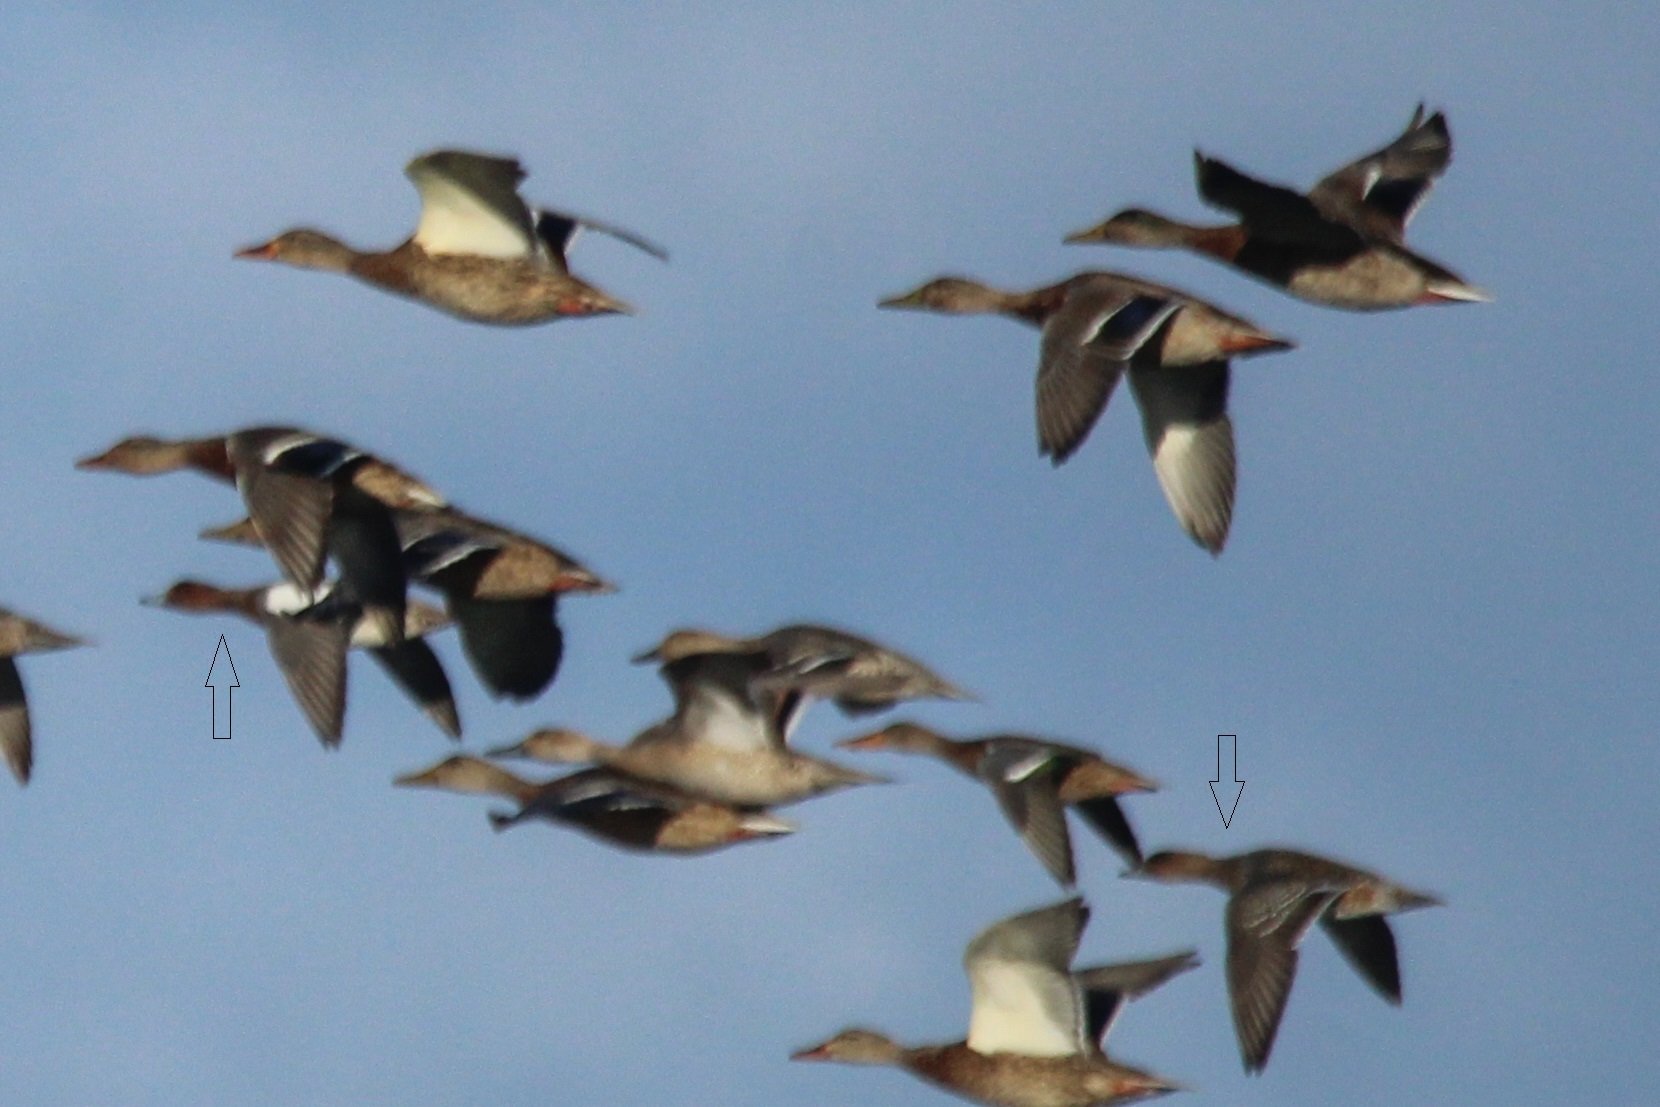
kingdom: Animalia
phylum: Chordata
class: Aves
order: Anseriformes
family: Anatidae
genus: Mareca
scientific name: Mareca penelope
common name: Eurasian wigeon
